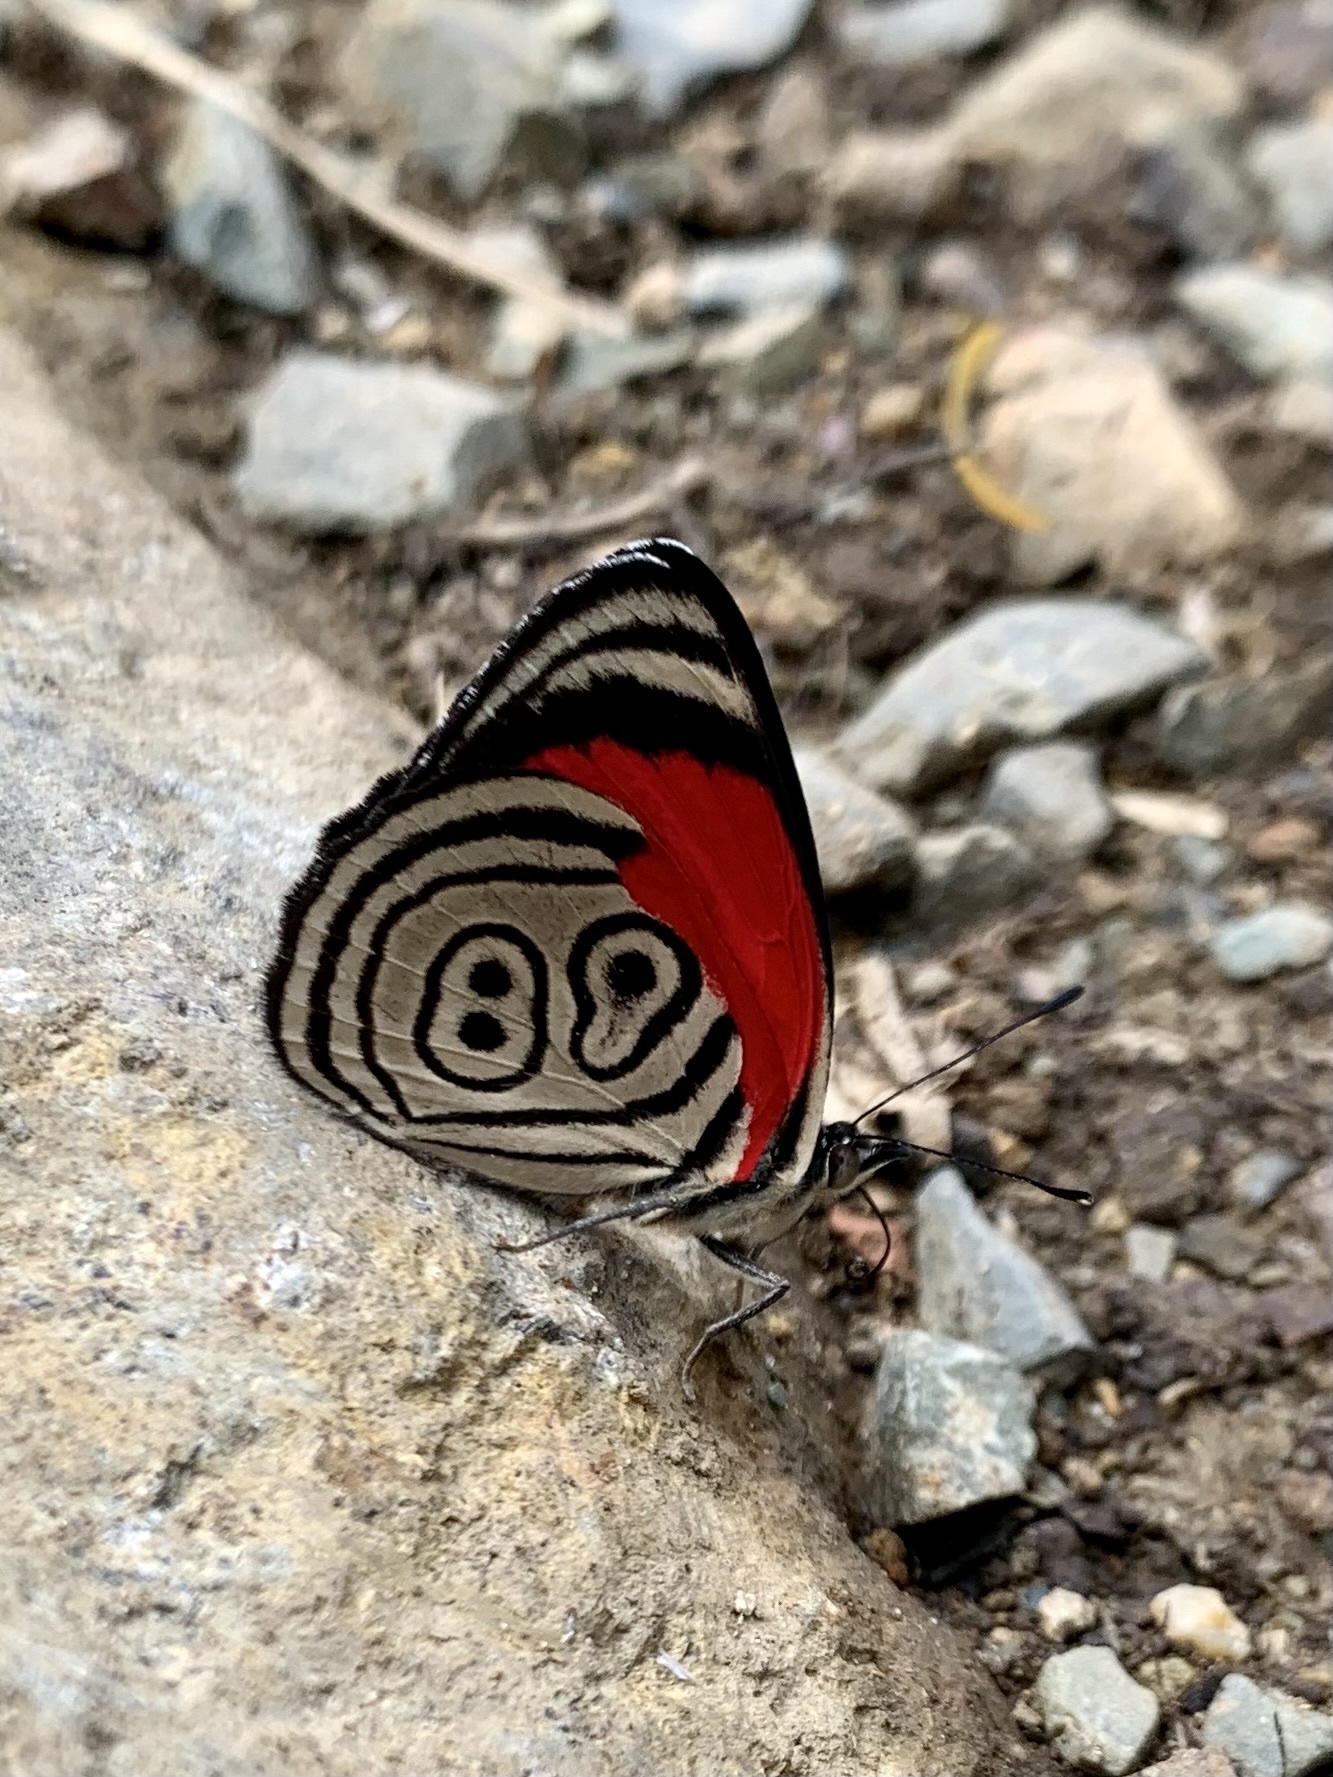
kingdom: Animalia
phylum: Arthropoda
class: Insecta
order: Lepidoptera
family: Nymphalidae
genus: Diaethria
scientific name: Diaethria clymena
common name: Widespread eighty-eight
